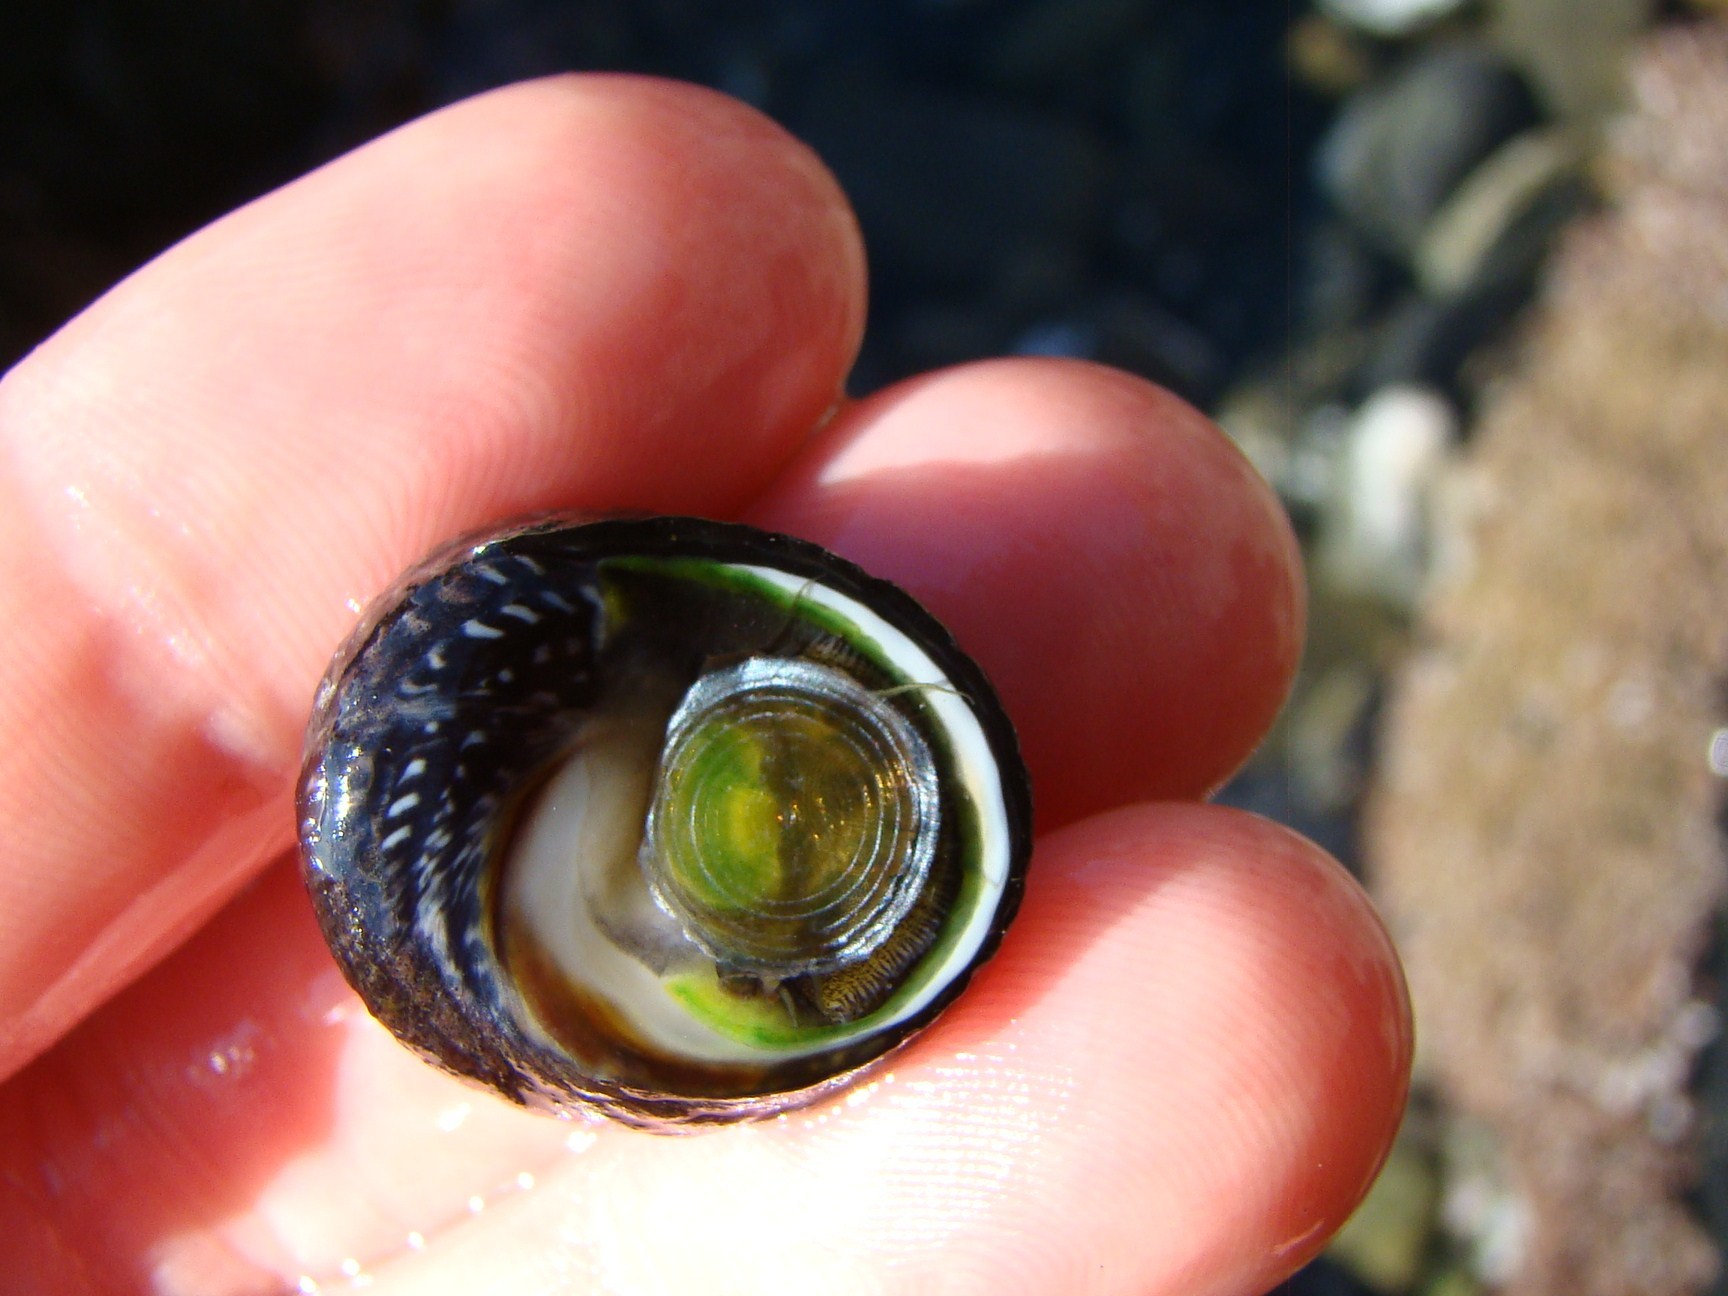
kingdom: Animalia
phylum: Mollusca
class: Gastropoda
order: Trochida
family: Trochidae
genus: Diloma
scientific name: Diloma aethiops
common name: Scorched monodont
